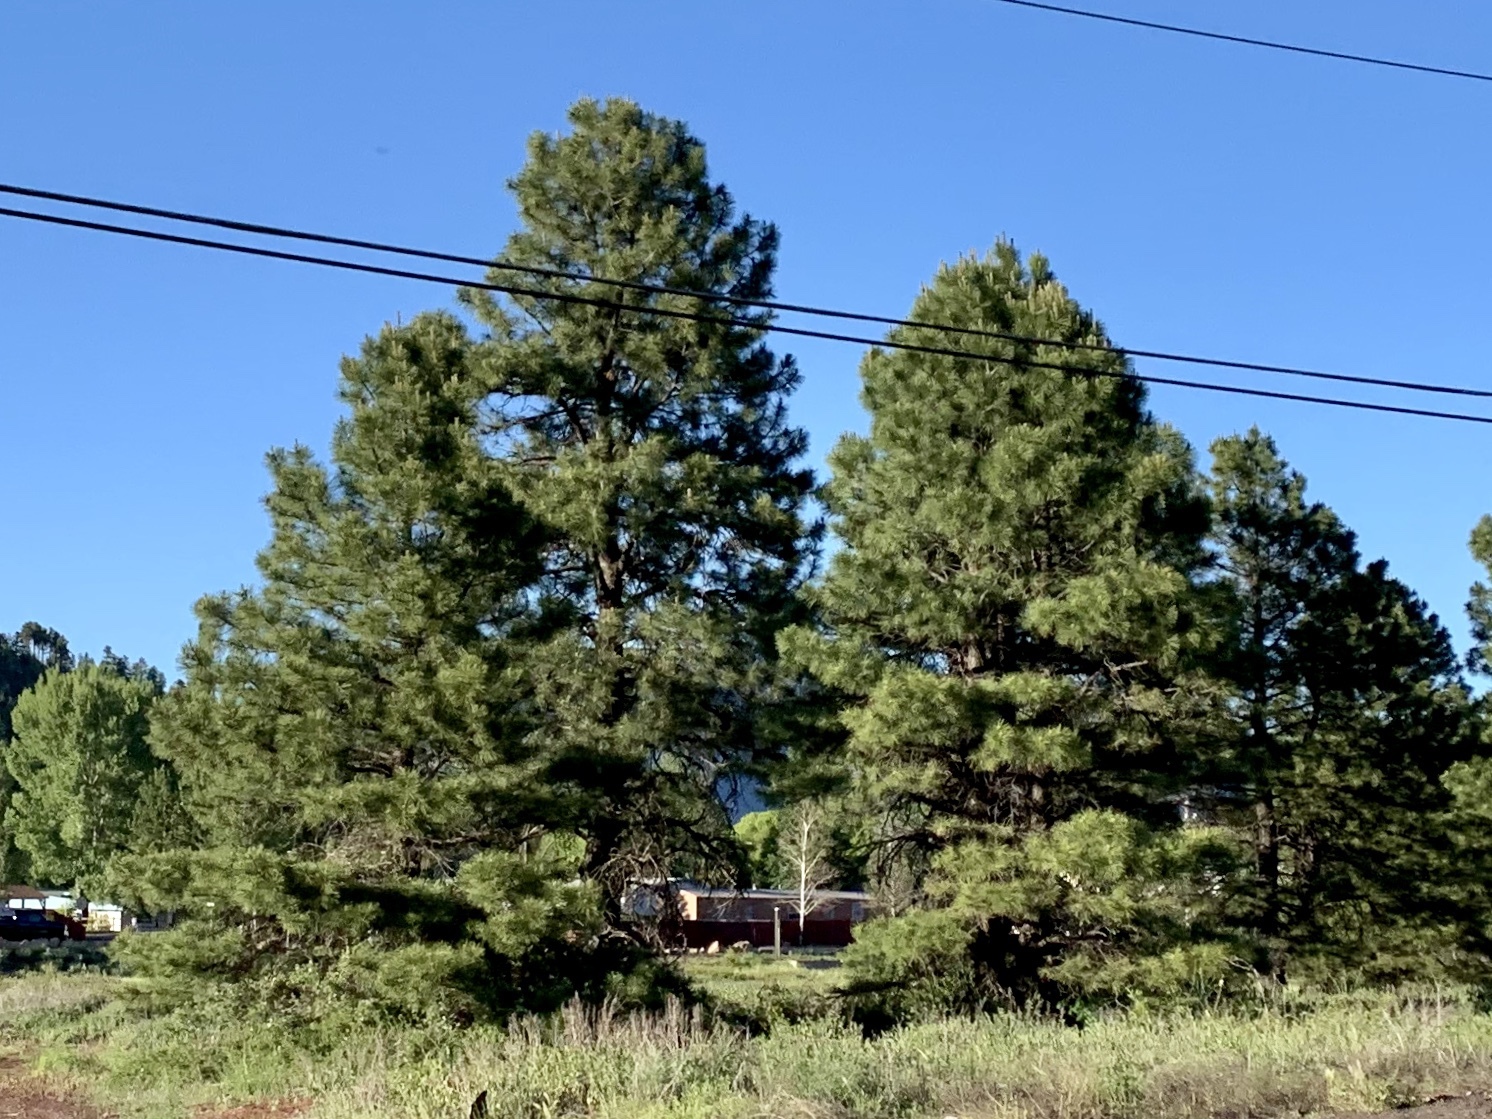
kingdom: Plantae
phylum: Tracheophyta
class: Pinopsida
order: Pinales
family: Pinaceae
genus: Pinus
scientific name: Pinus ponderosa
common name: Western yellow-pine
